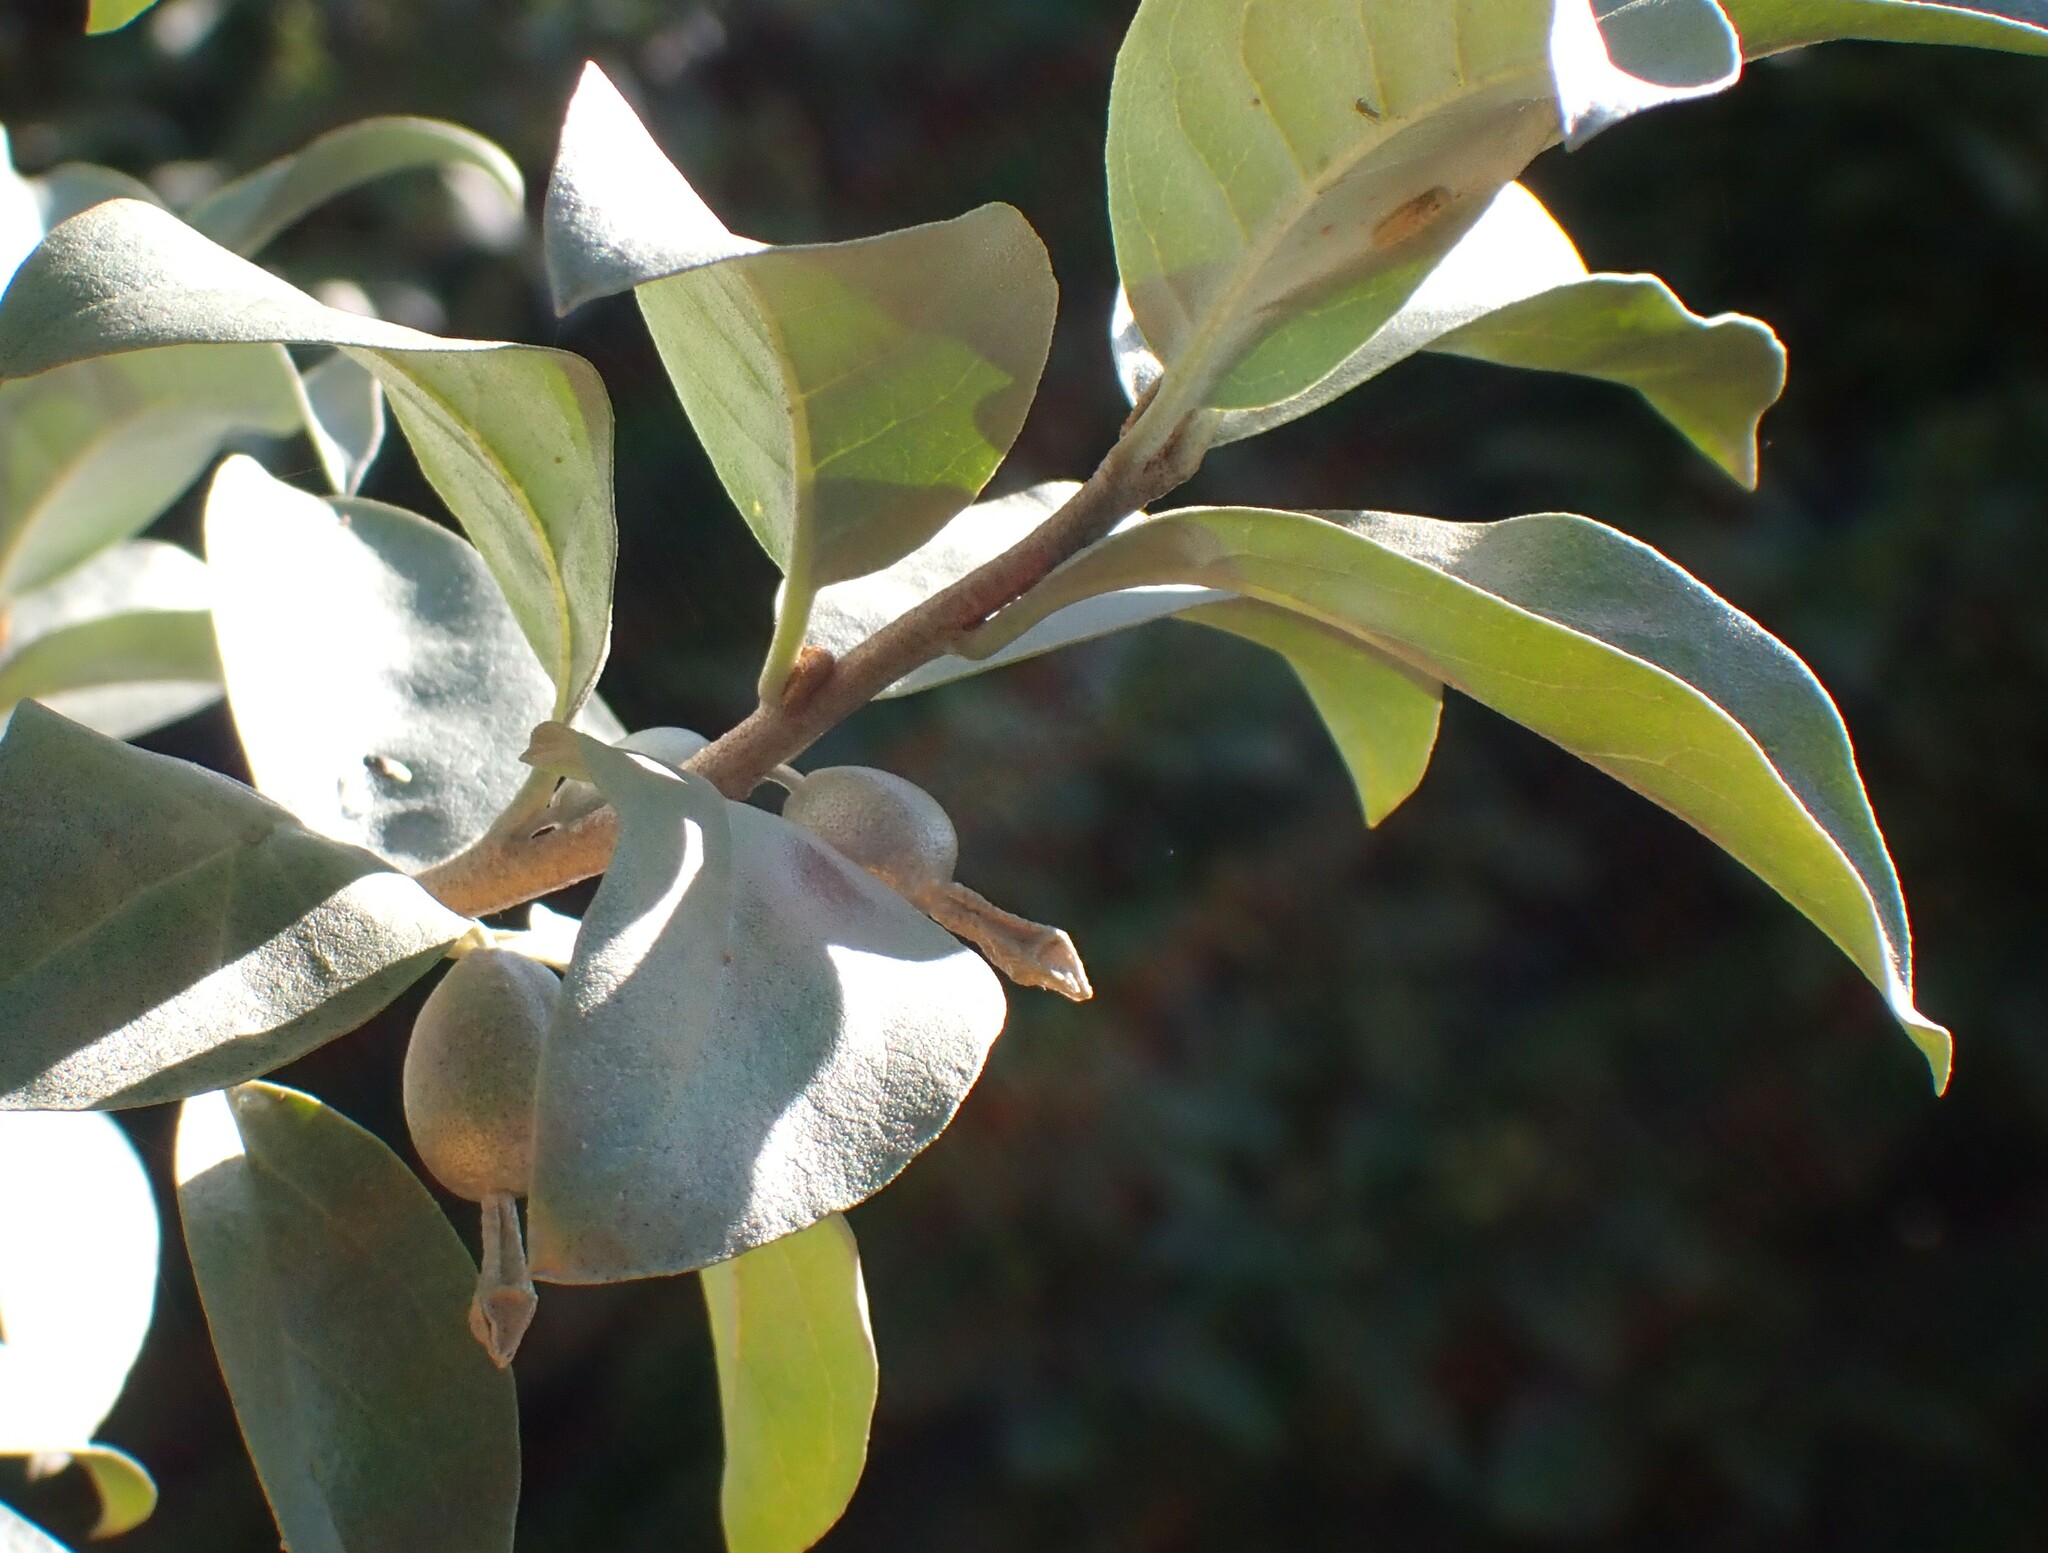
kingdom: Plantae
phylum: Tracheophyta
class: Magnoliopsida
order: Rosales
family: Elaeagnaceae
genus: Elaeagnus
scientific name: Elaeagnus commutata
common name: Silverberry
